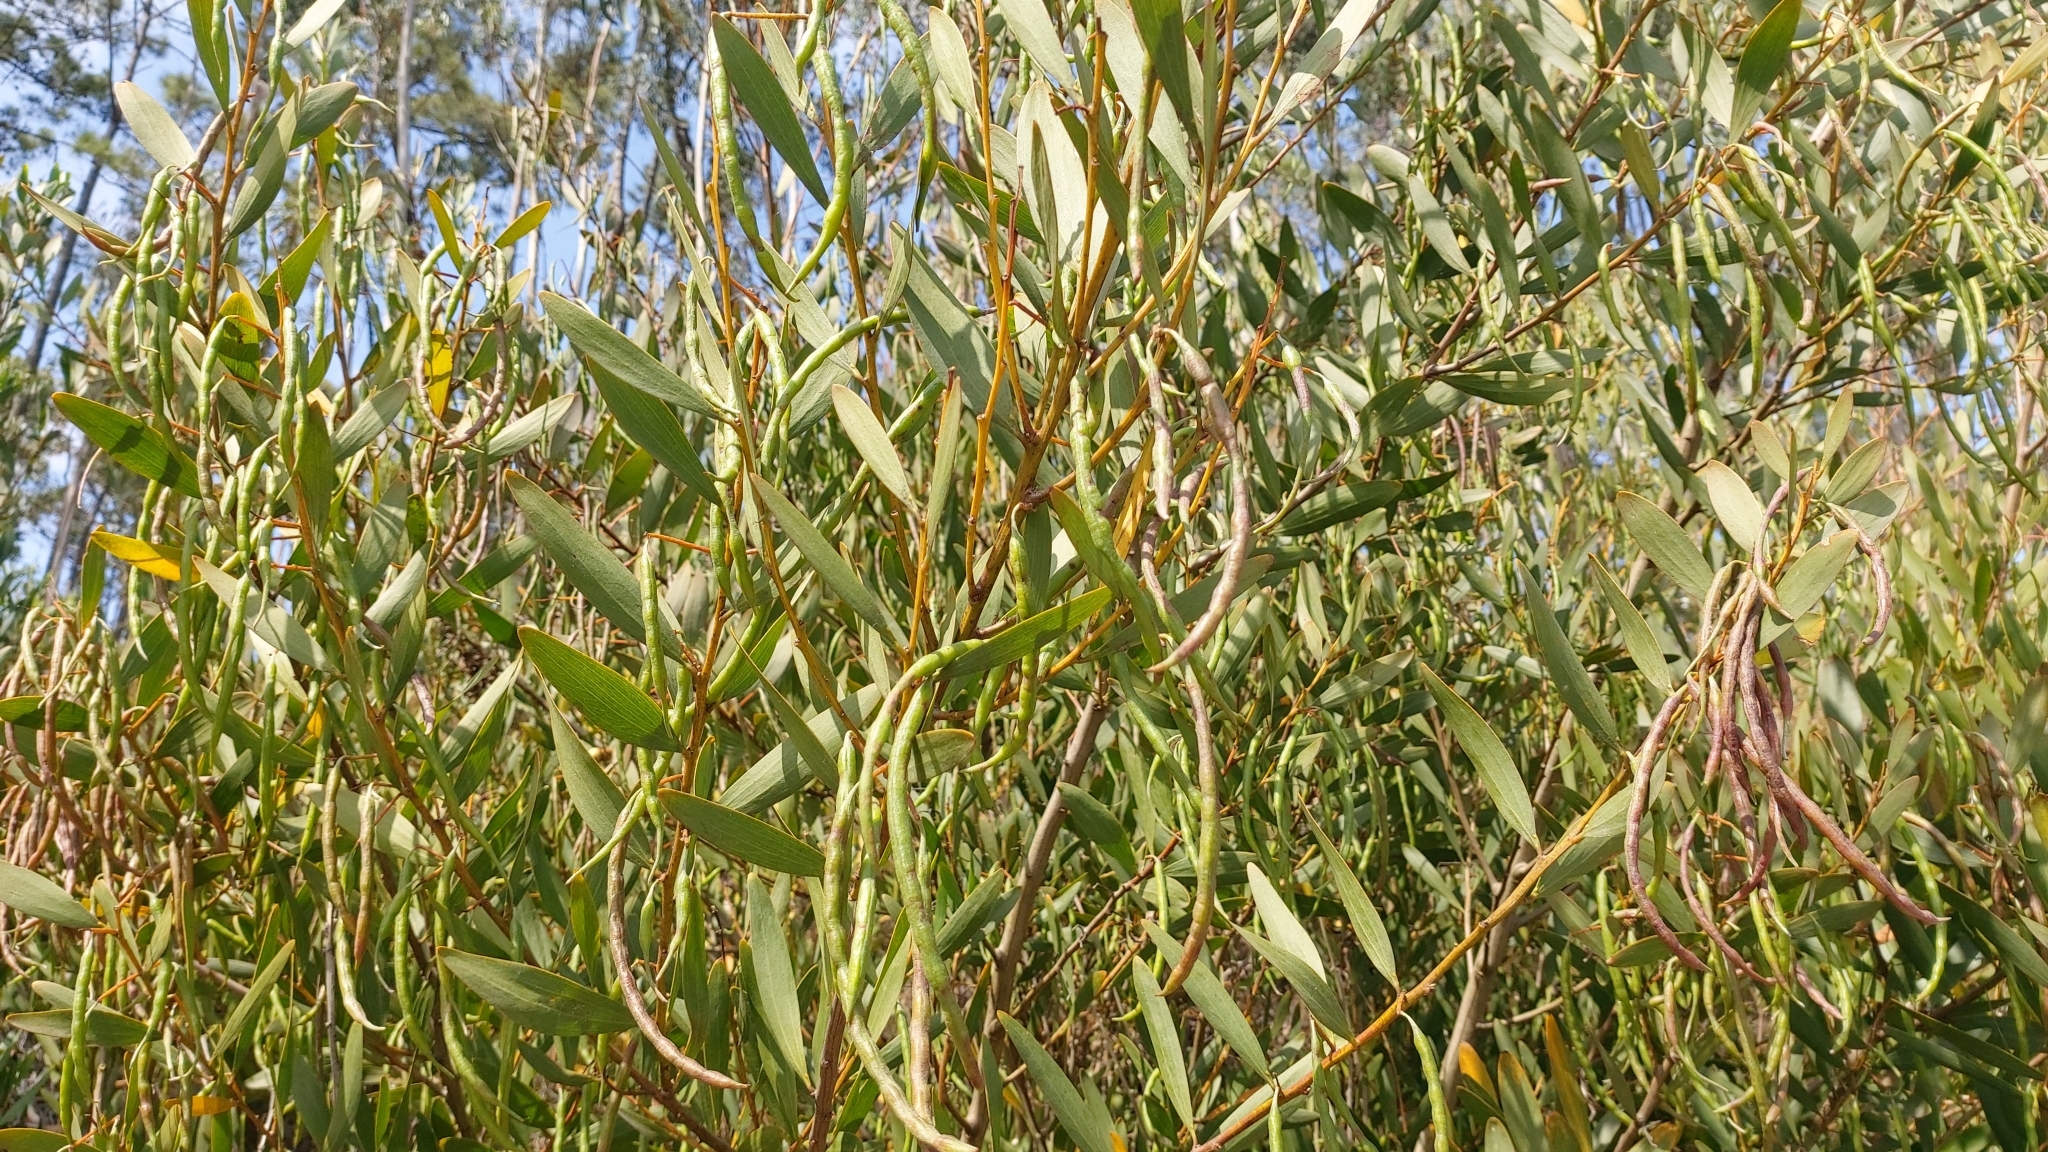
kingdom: Plantae
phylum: Tracheophyta
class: Magnoliopsida
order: Fabales
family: Fabaceae
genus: Acacia
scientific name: Acacia longifolia
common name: Sydney golden wattle
